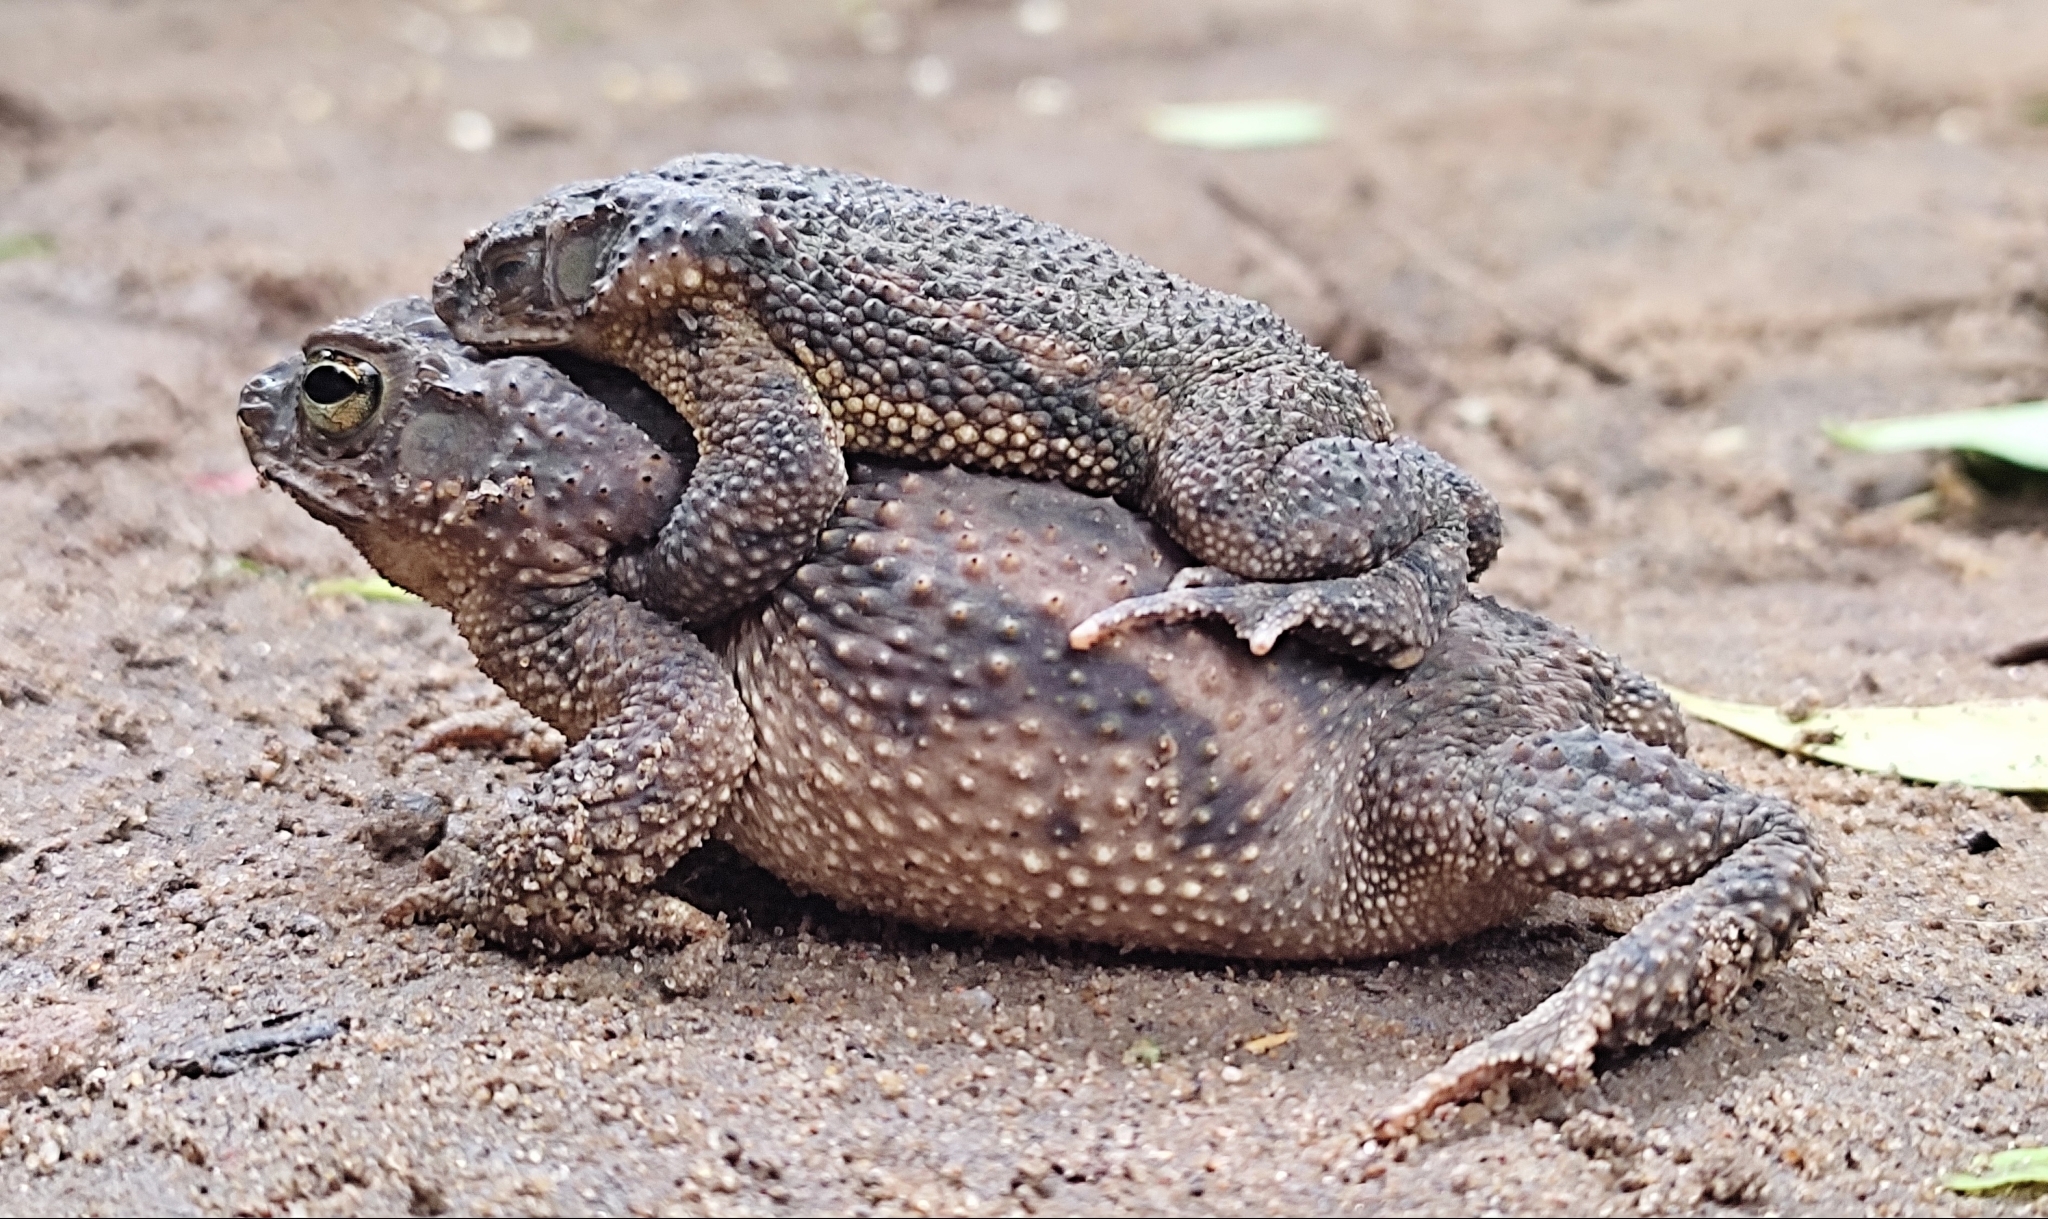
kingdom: Animalia
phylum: Chordata
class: Amphibia
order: Anura
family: Bufonidae
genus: Rhinella
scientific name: Rhinella major
